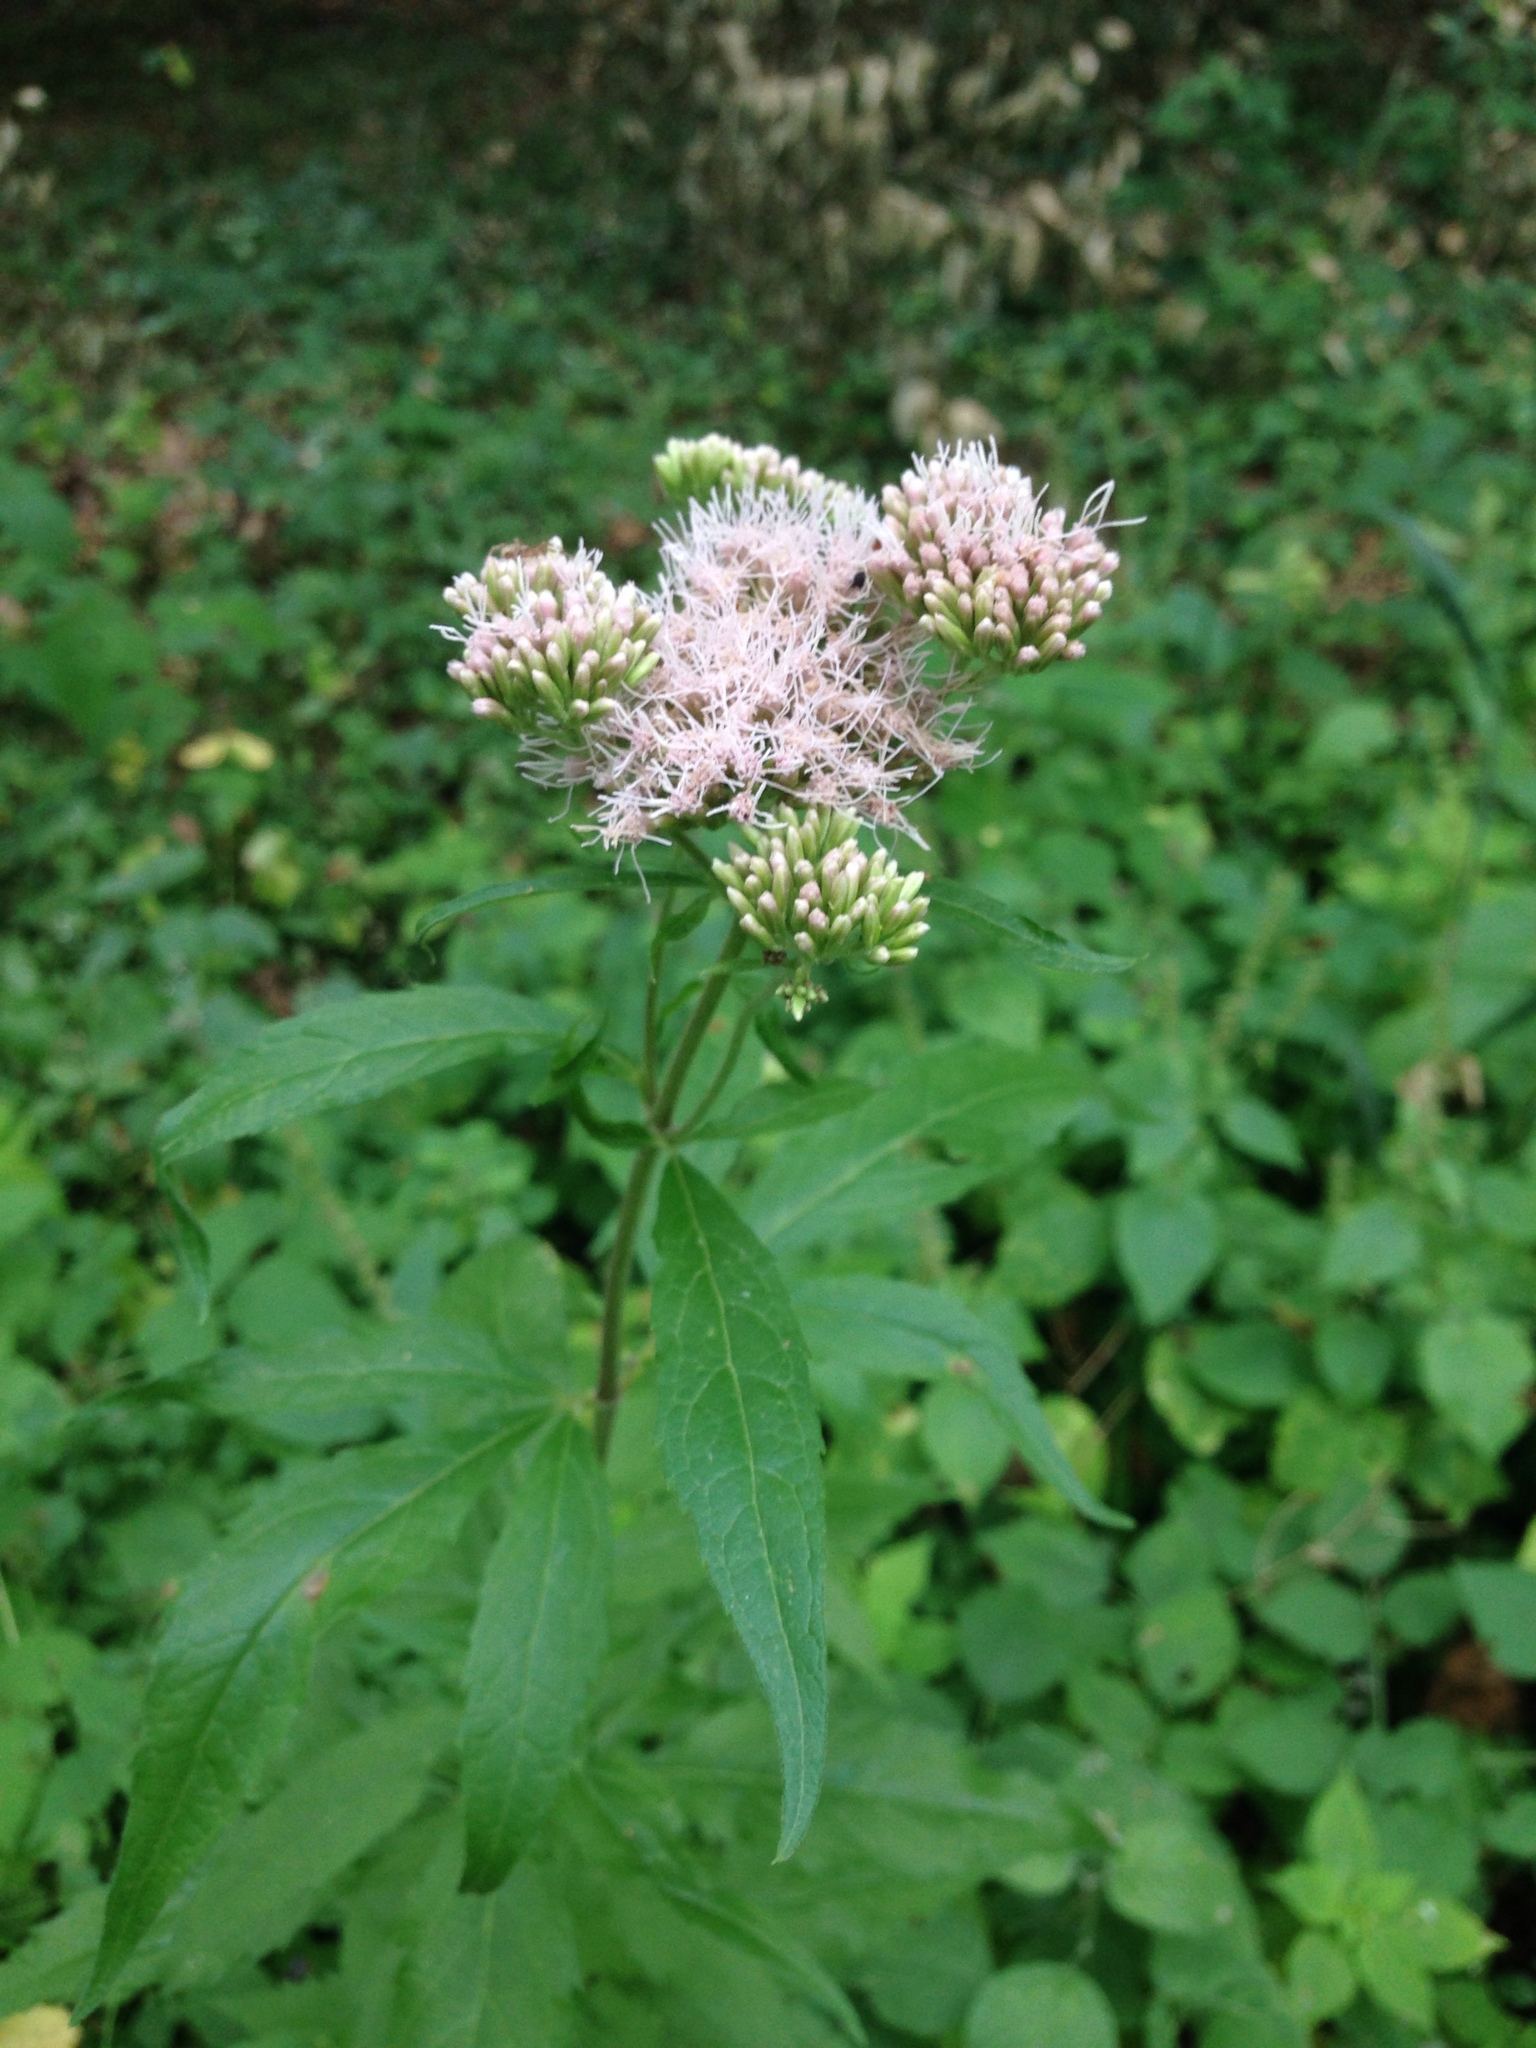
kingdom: Plantae
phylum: Tracheophyta
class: Magnoliopsida
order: Asterales
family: Asteraceae
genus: Eupatorium
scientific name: Eupatorium cannabinum
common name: Hemp-agrimony
